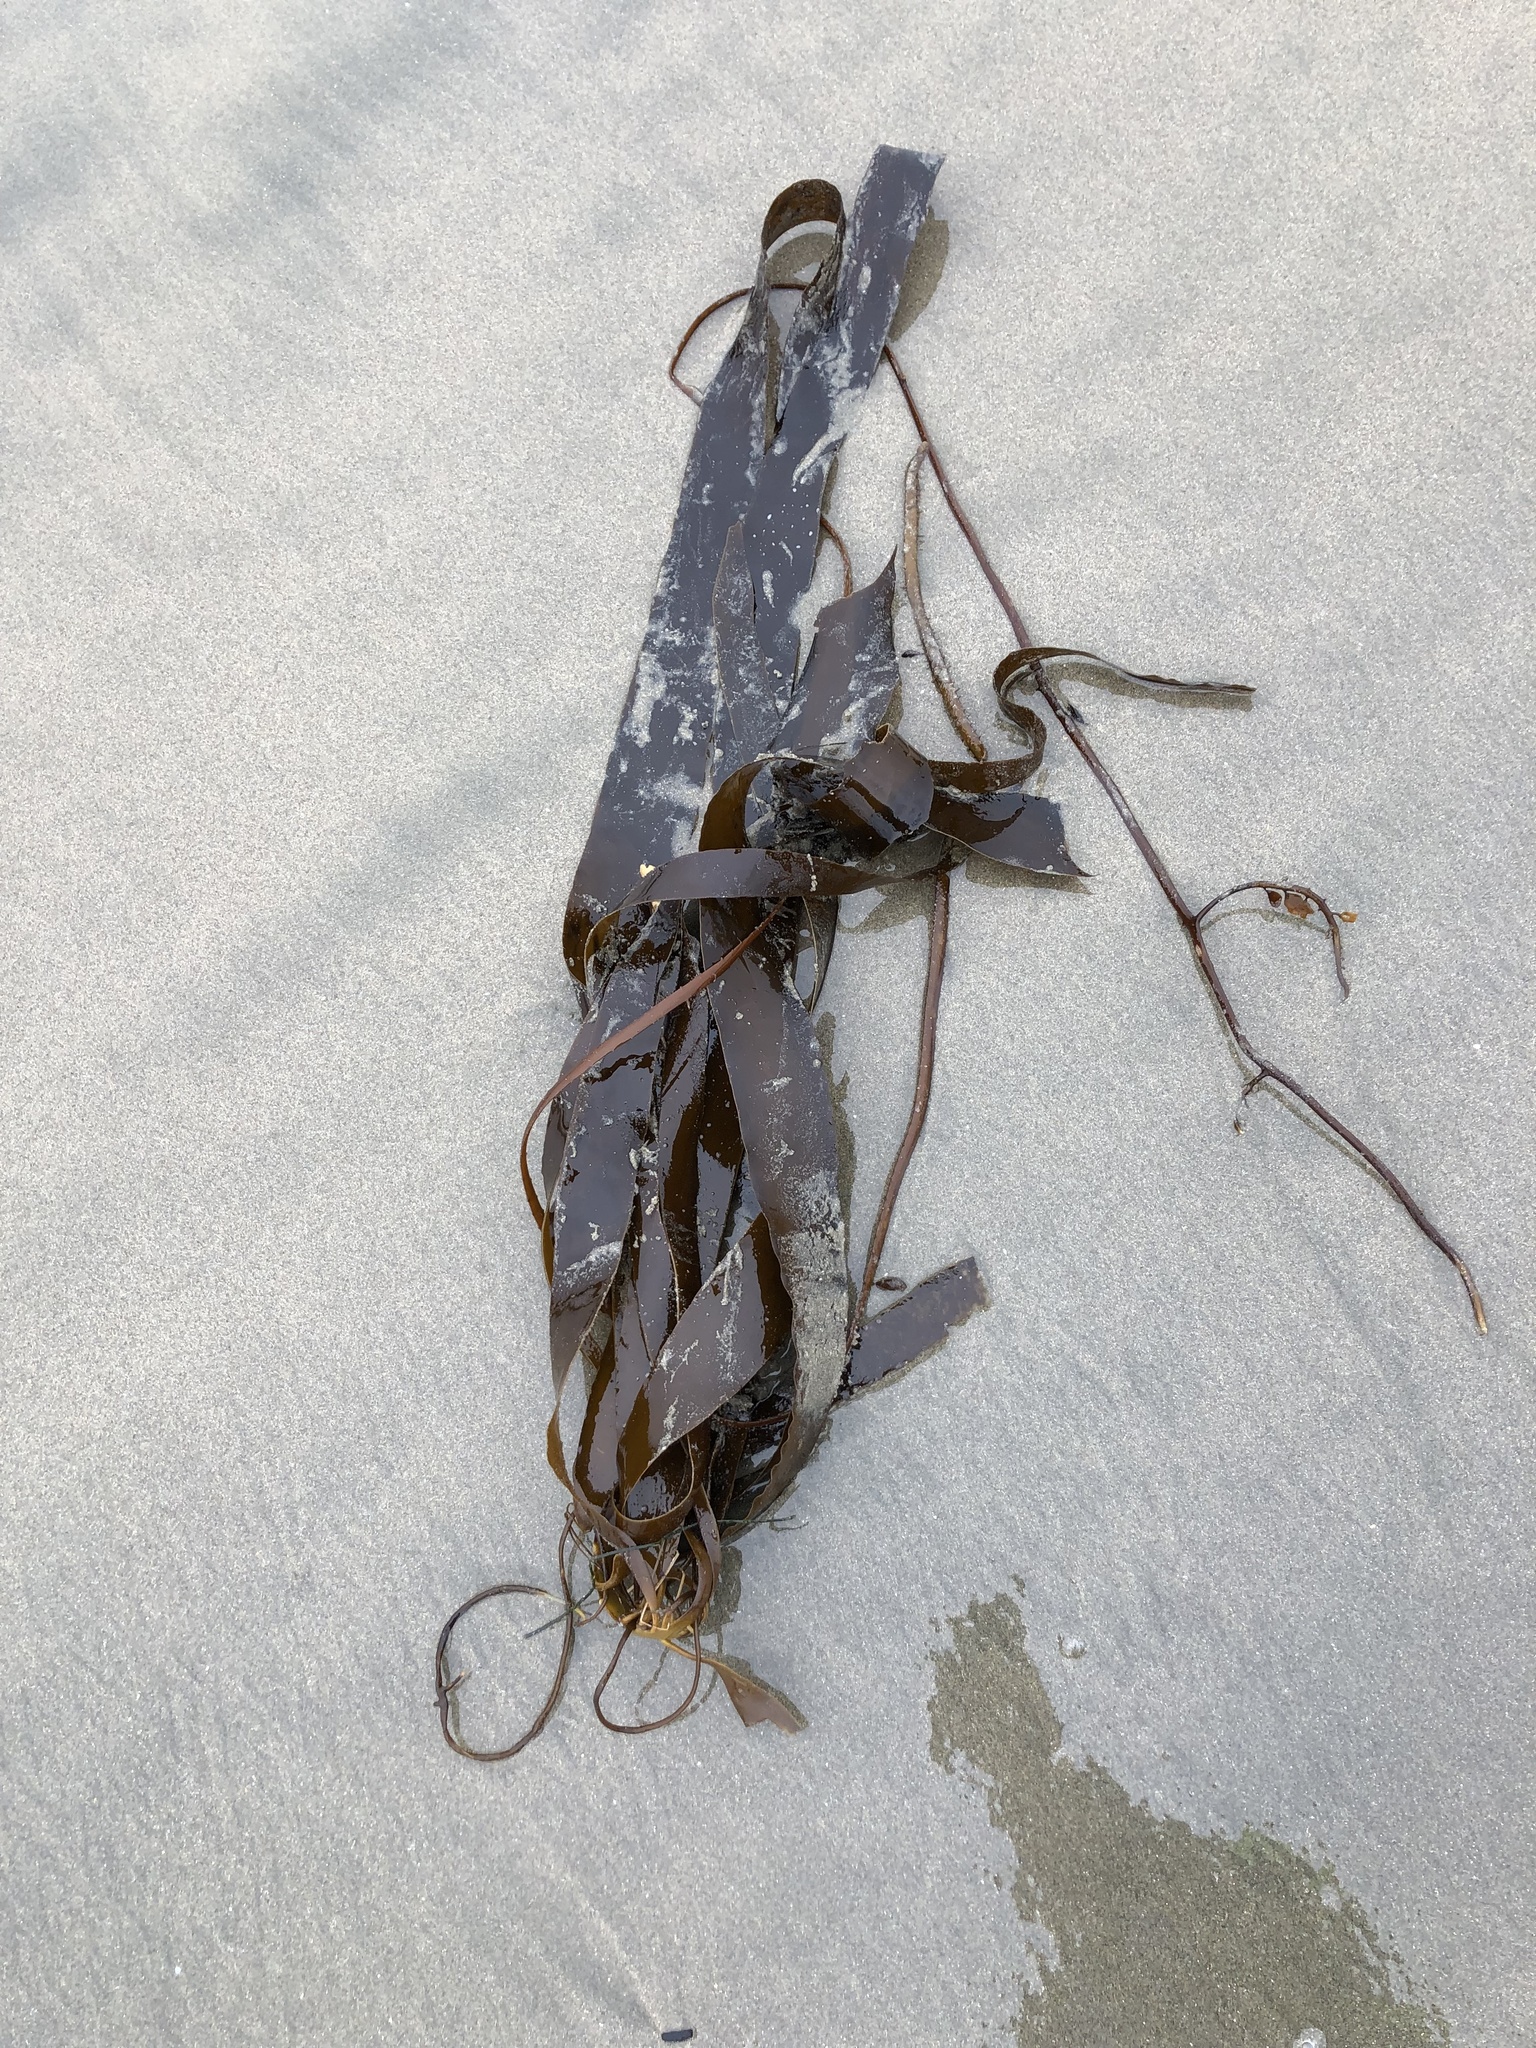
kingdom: Chromista
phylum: Ochrophyta
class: Phaeophyceae
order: Laminariales
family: Alariaceae
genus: Pterygophora
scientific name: Pterygophora californica
